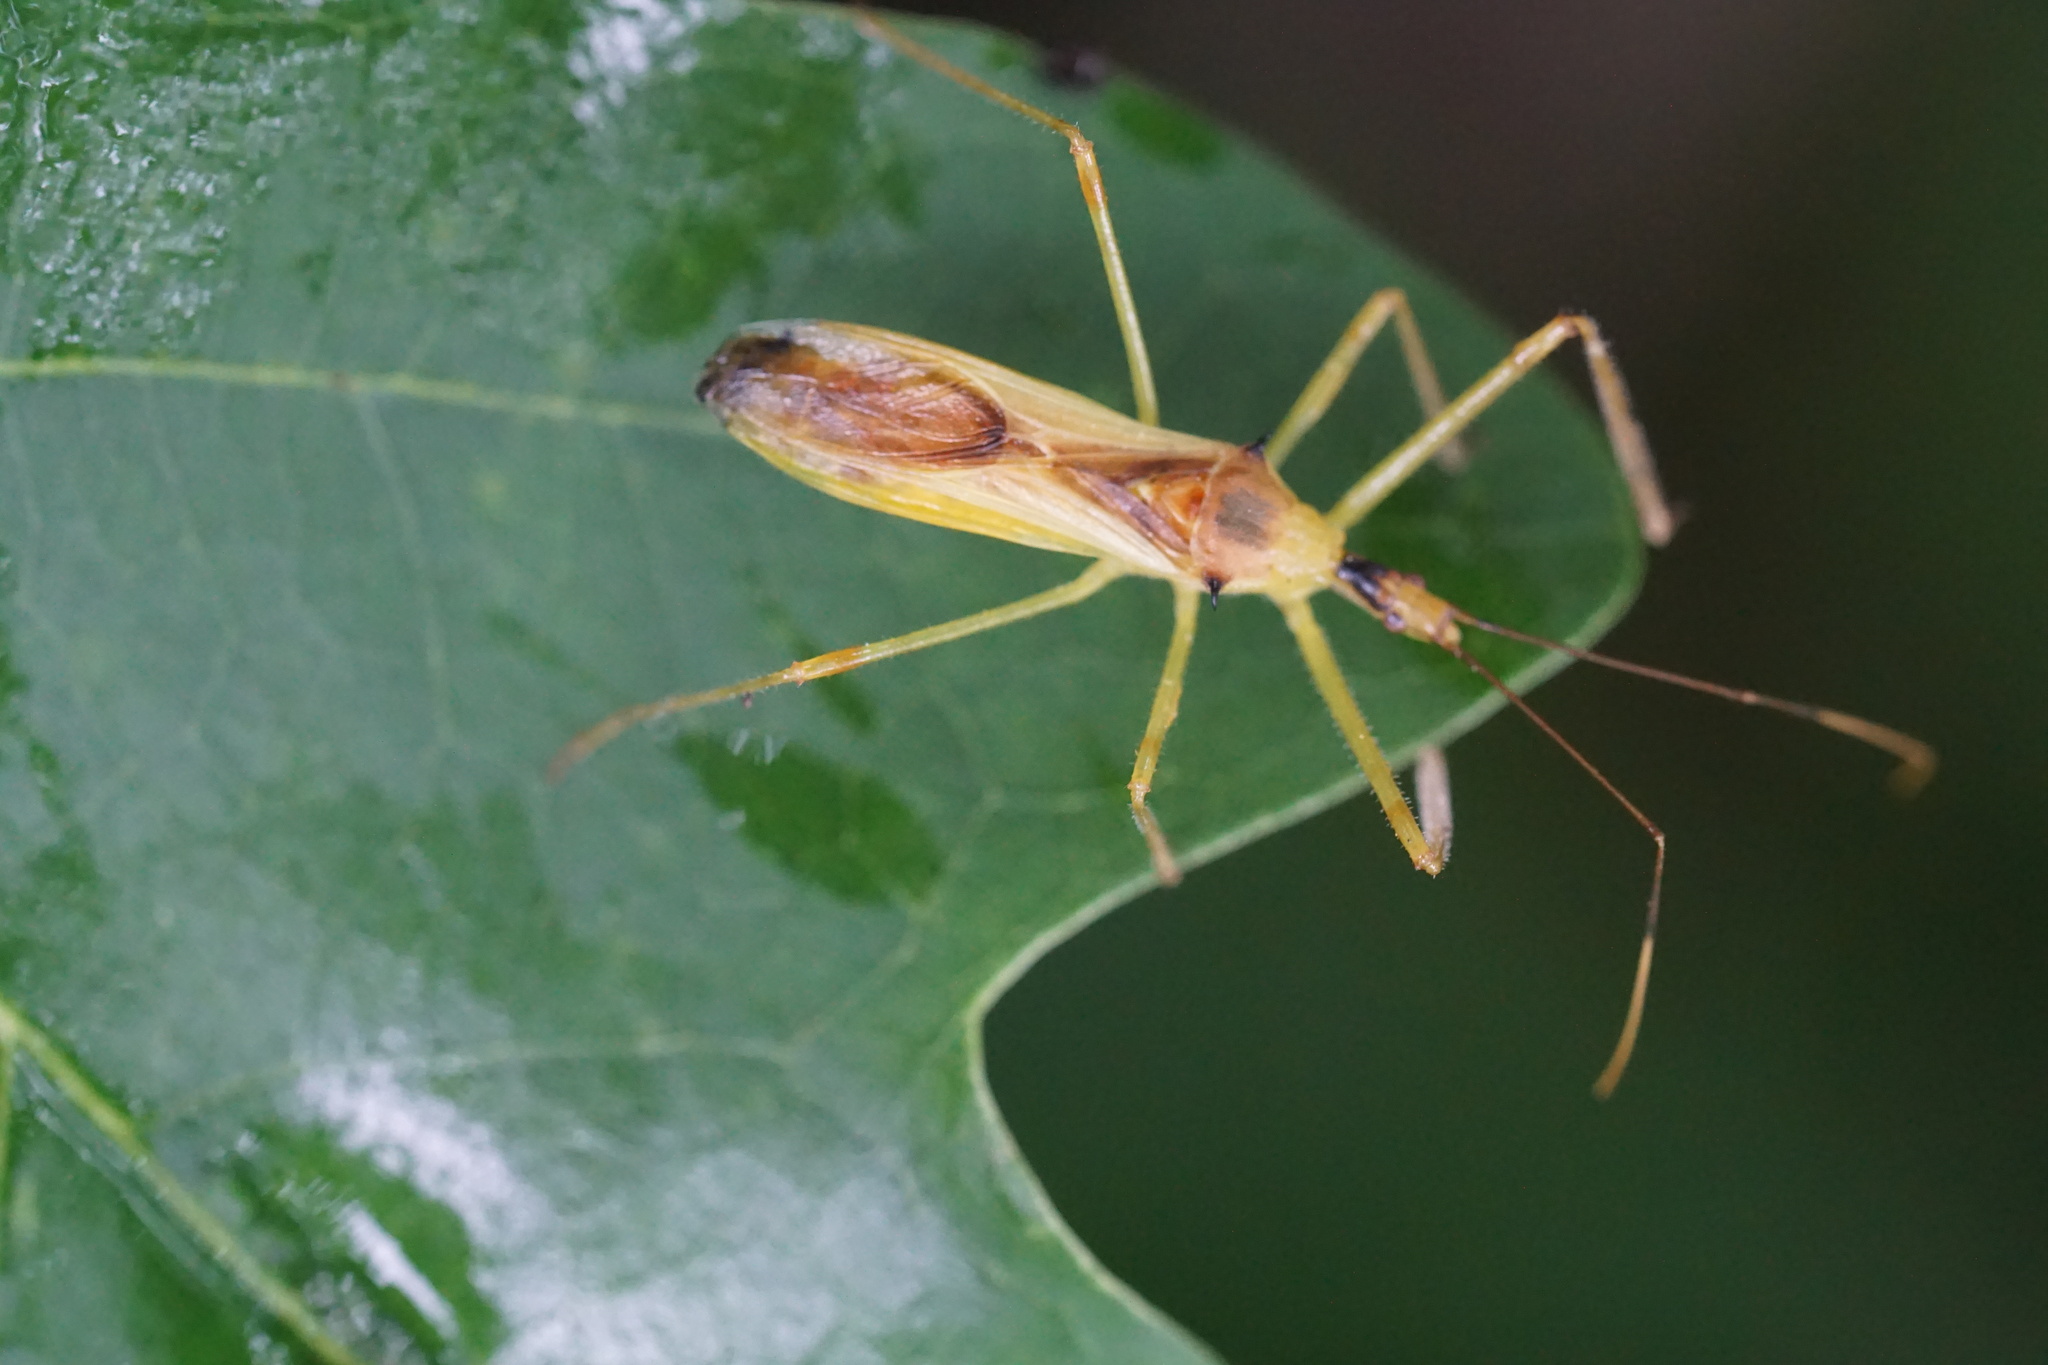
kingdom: Animalia
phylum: Arthropoda
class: Insecta
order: Hemiptera
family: Reduviidae
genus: Zelus
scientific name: Zelus luridus
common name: Pale green assassin bug
